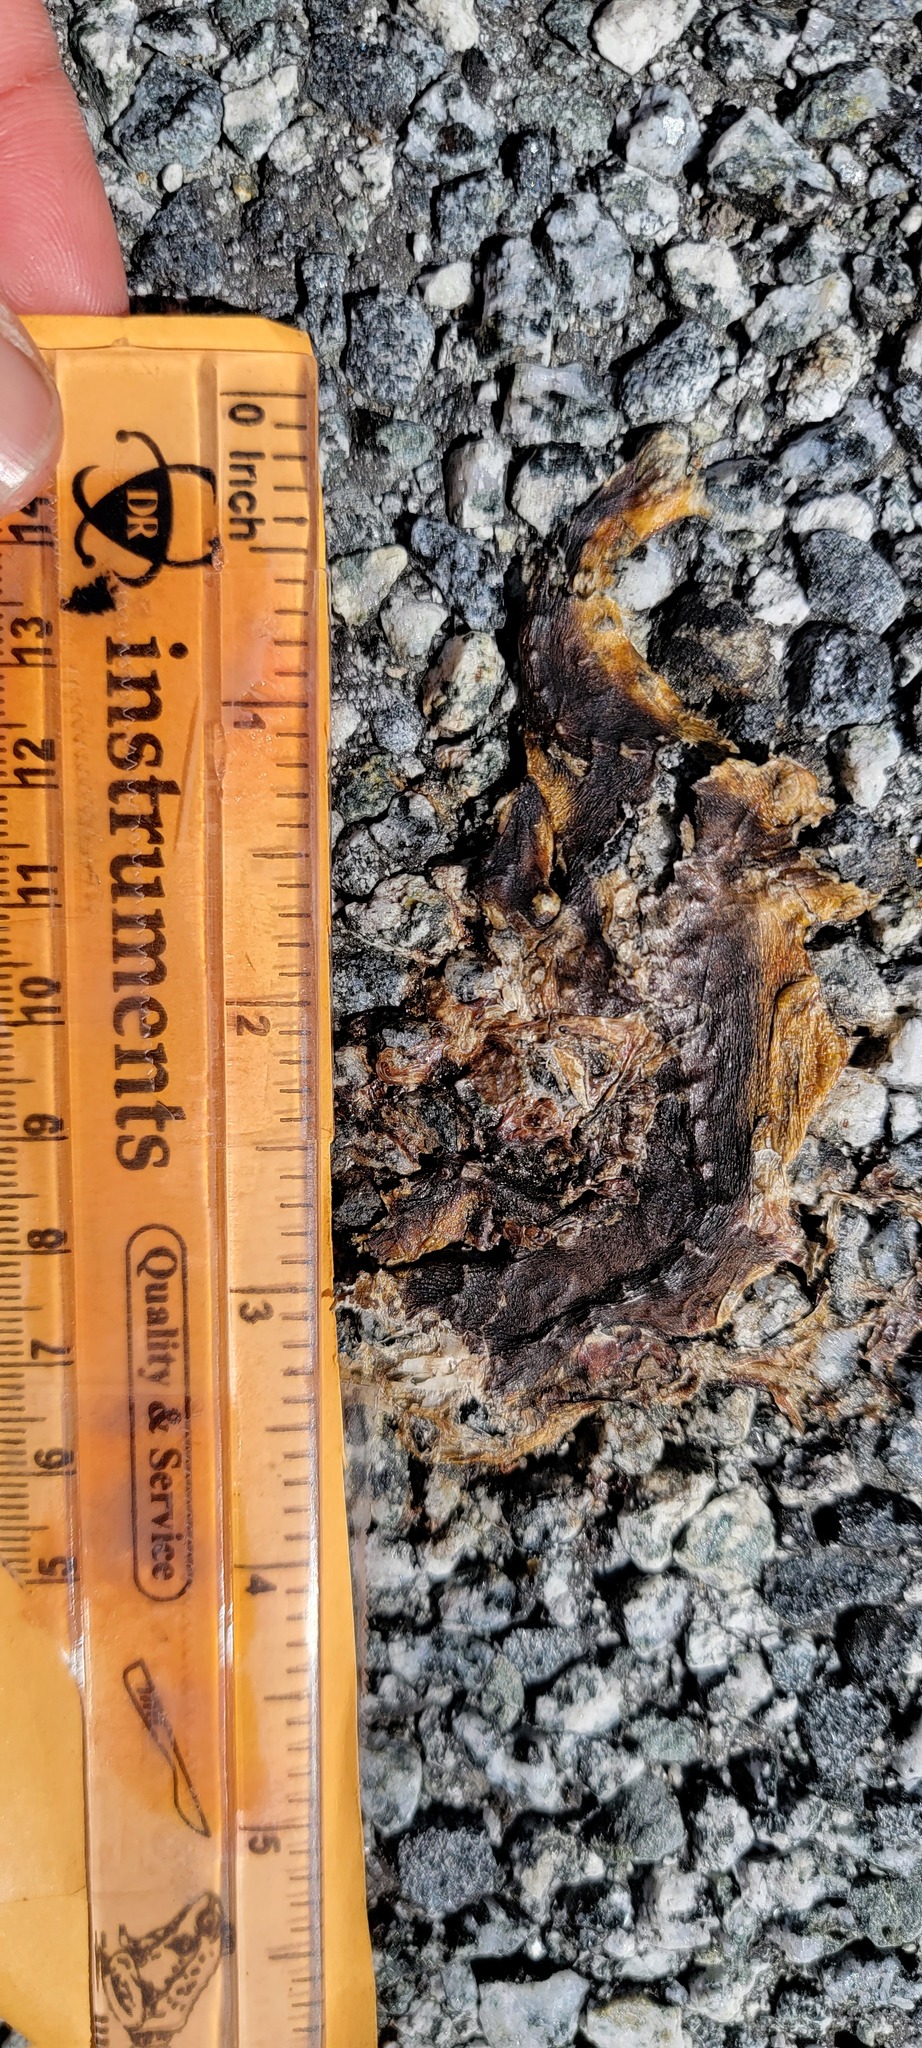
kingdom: Animalia
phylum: Chordata
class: Amphibia
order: Caudata
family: Salamandridae
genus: Taricha
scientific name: Taricha
